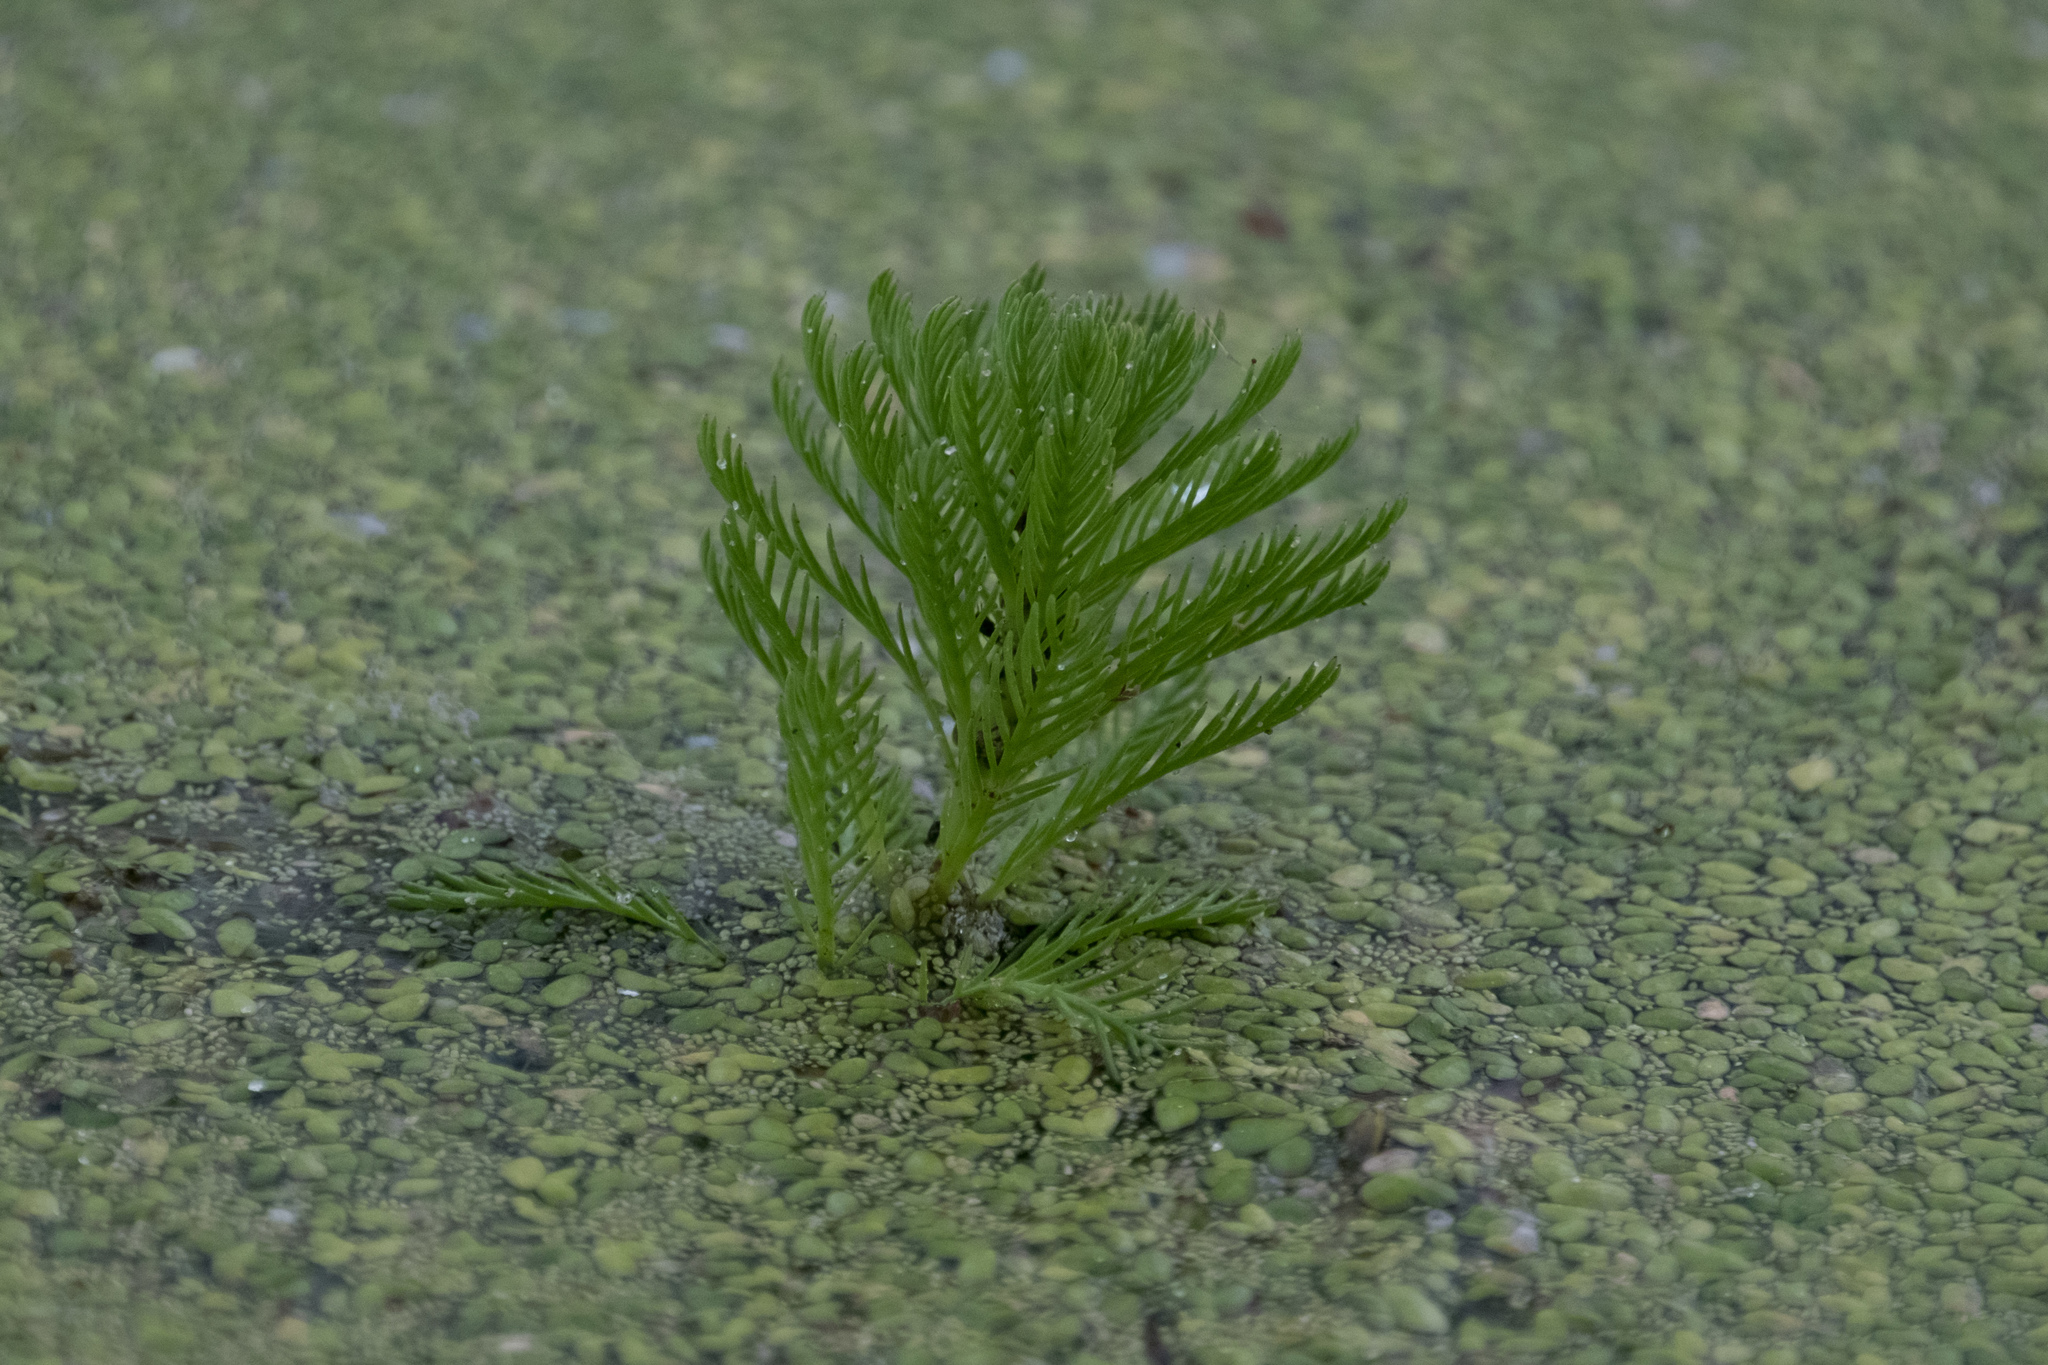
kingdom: Plantae
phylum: Tracheophyta
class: Magnoliopsida
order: Saxifragales
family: Haloragaceae
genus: Myriophyllum
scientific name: Myriophyllum aquaticum
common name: Parrot's feather
